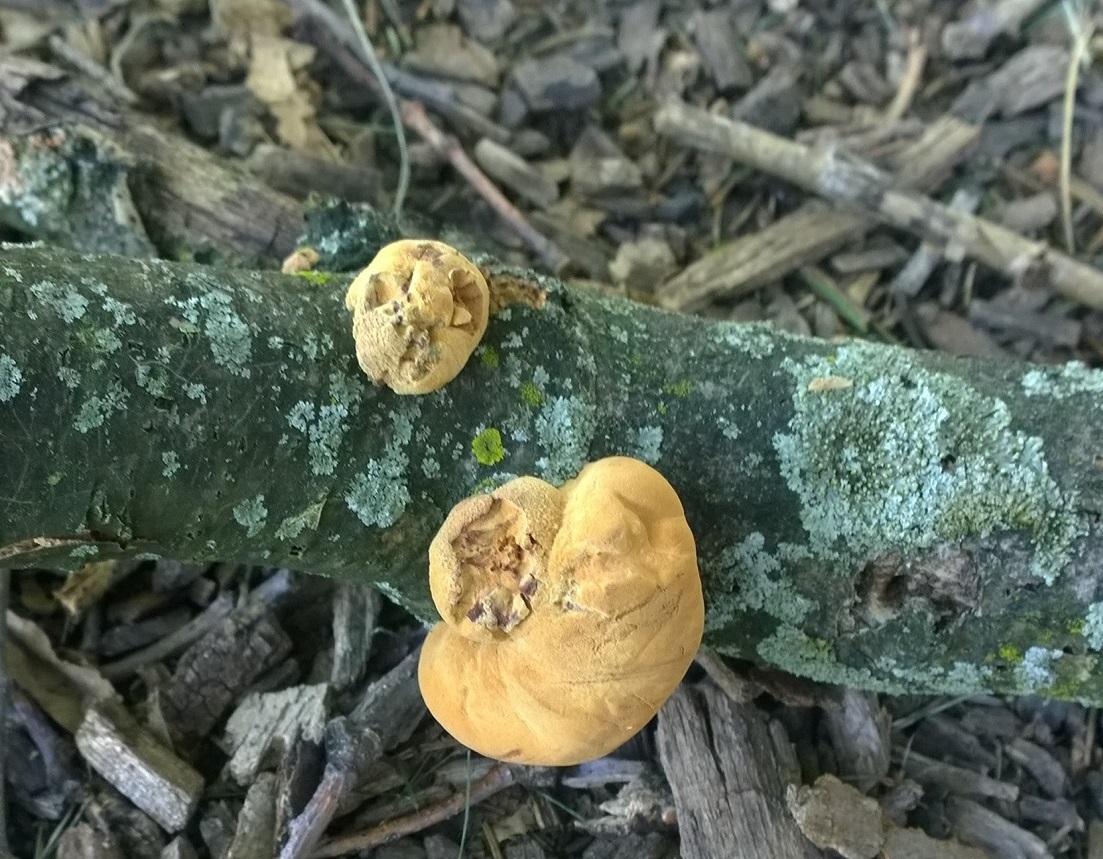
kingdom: Fungi
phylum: Basidiomycota
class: Agaricomycetes
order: Polyporales
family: Phanerochaetaceae
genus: Hapalopilus
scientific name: Hapalopilus rutilans
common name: Tender nesting polypore
